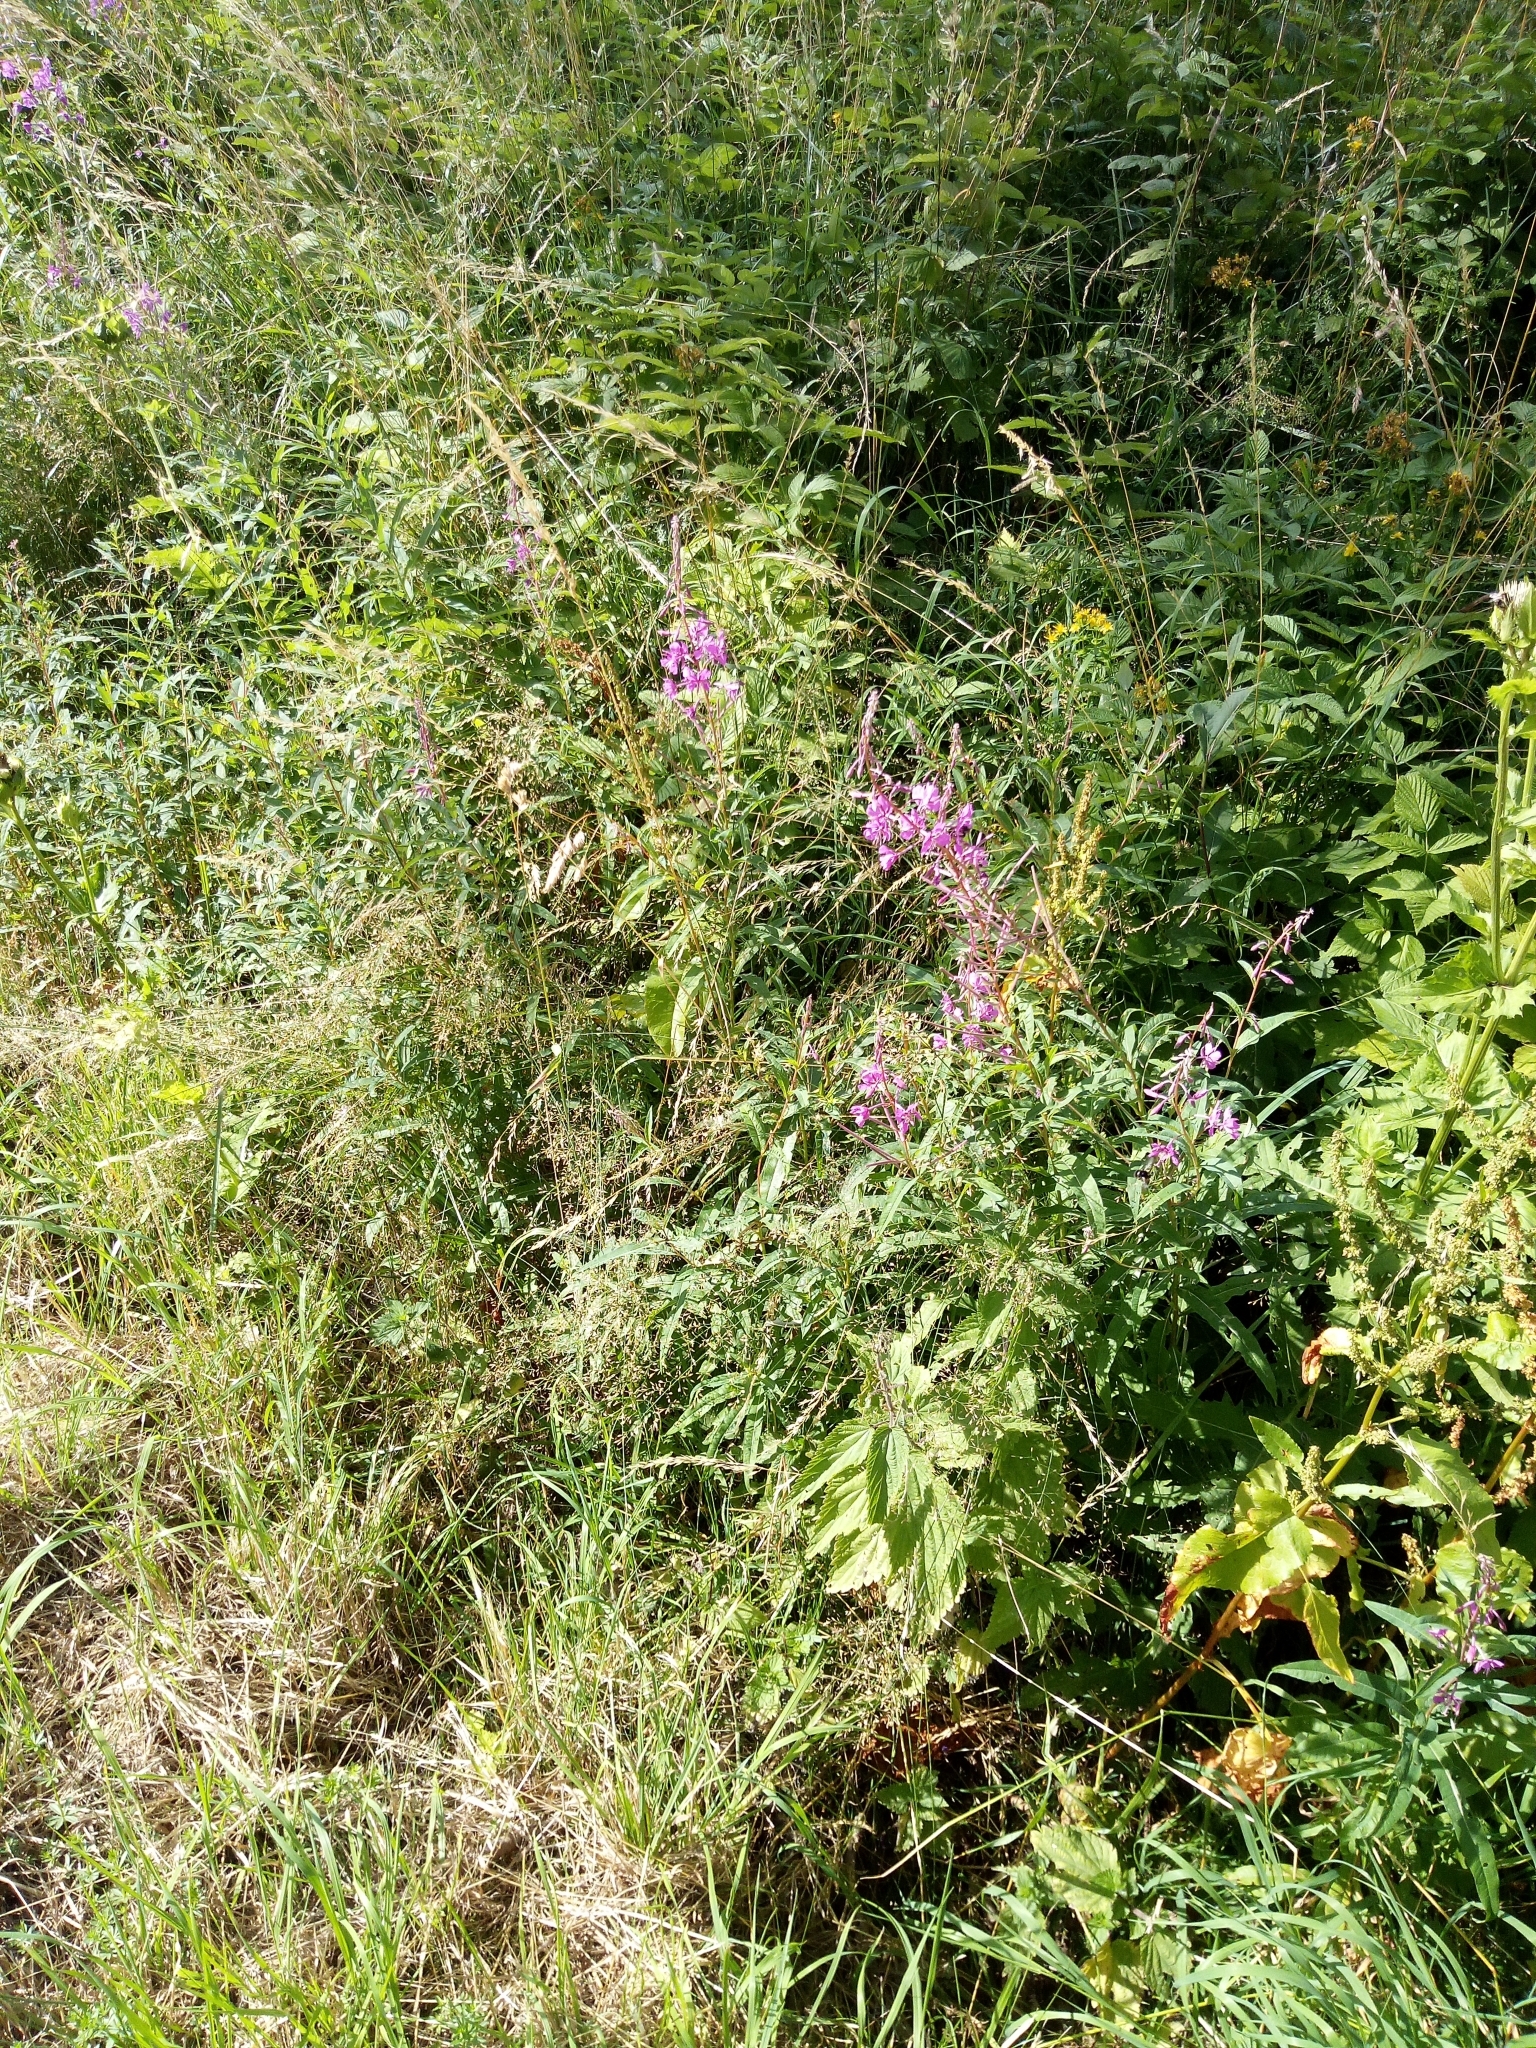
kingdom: Plantae
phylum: Tracheophyta
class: Magnoliopsida
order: Myrtales
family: Onagraceae
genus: Chamaenerion
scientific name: Chamaenerion angustifolium
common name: Fireweed
